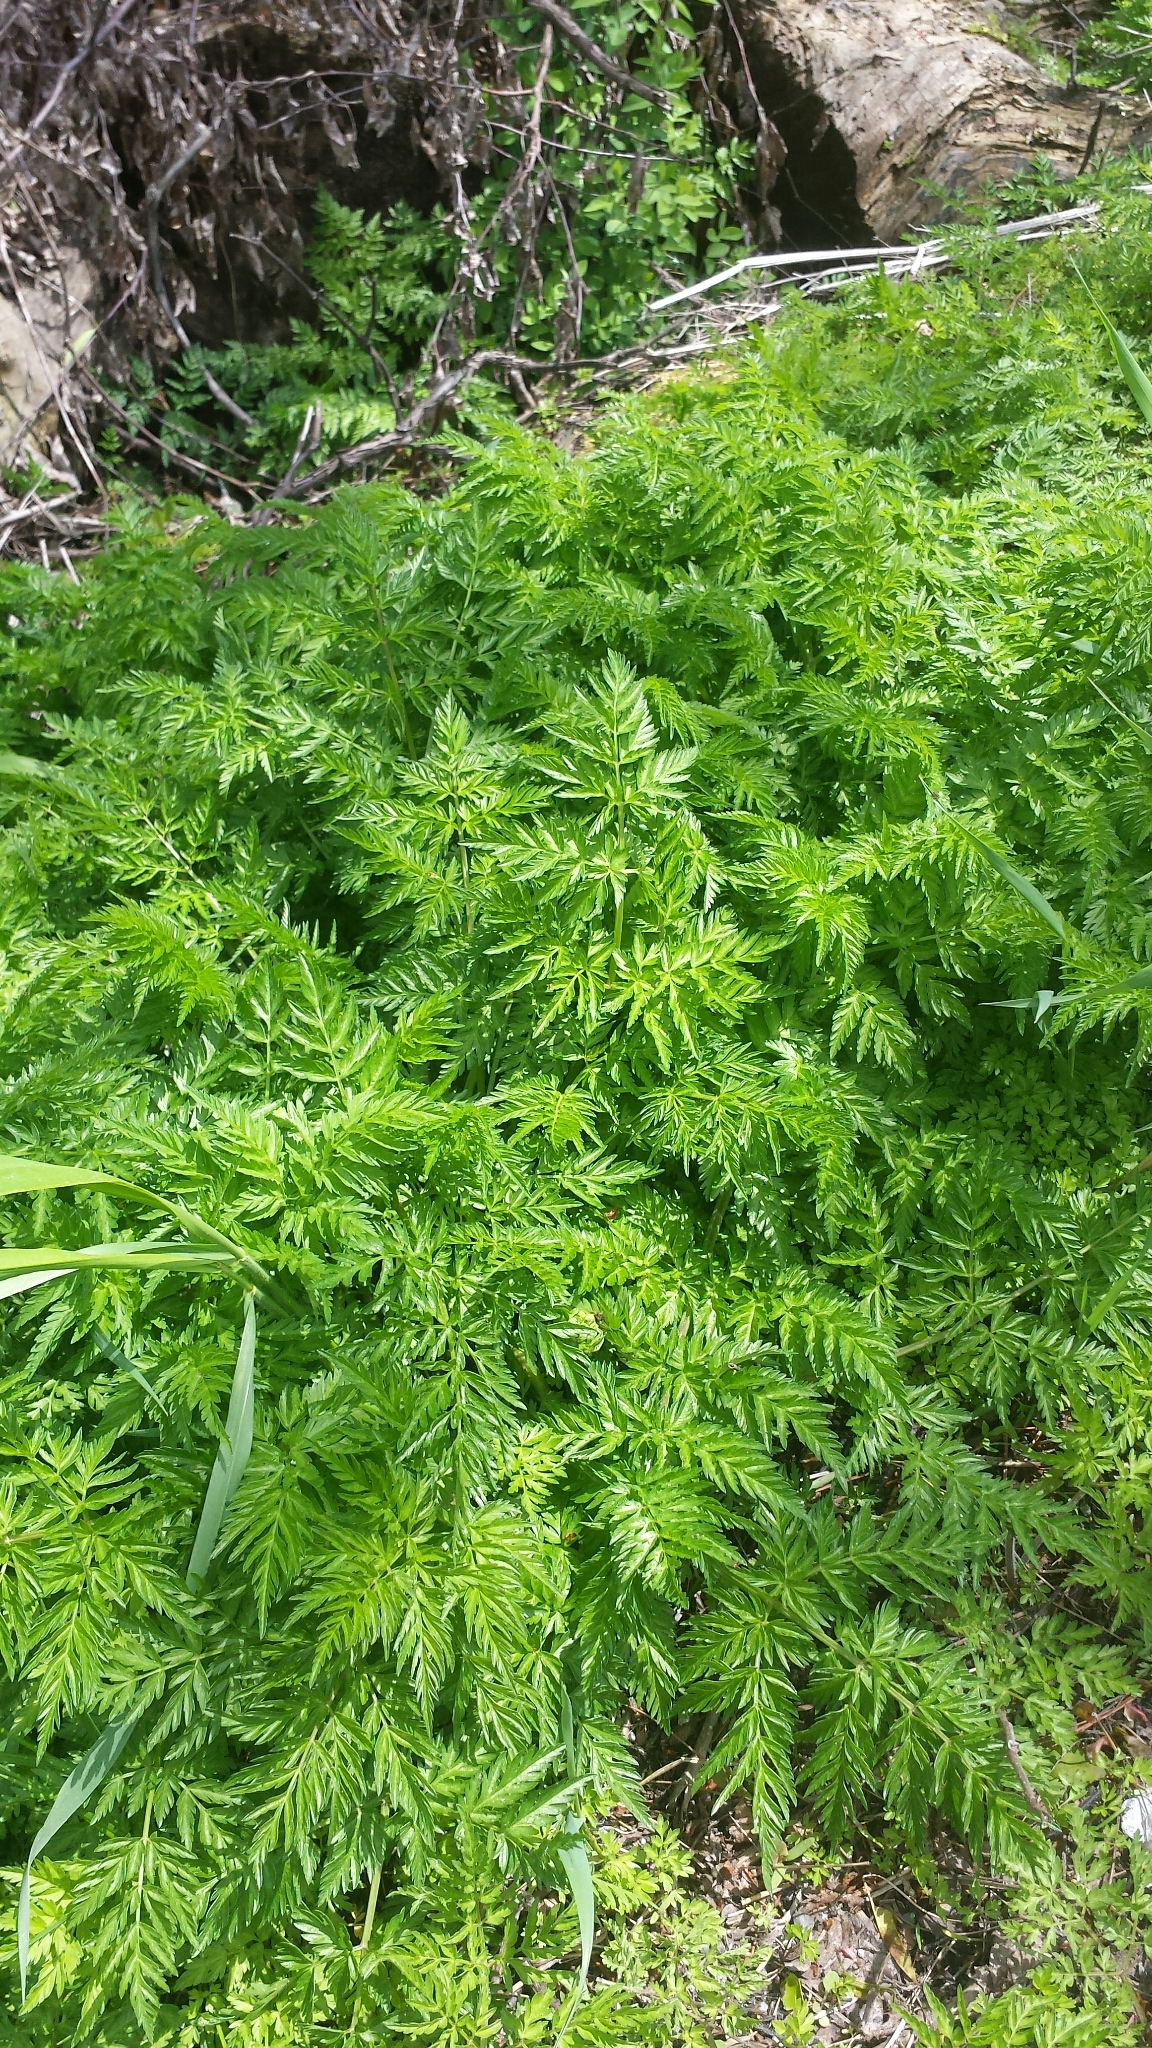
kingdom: Plantae
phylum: Tracheophyta
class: Magnoliopsida
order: Apiales
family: Apiaceae
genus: Anthriscus
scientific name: Anthriscus sylvestris
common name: Cow parsley
